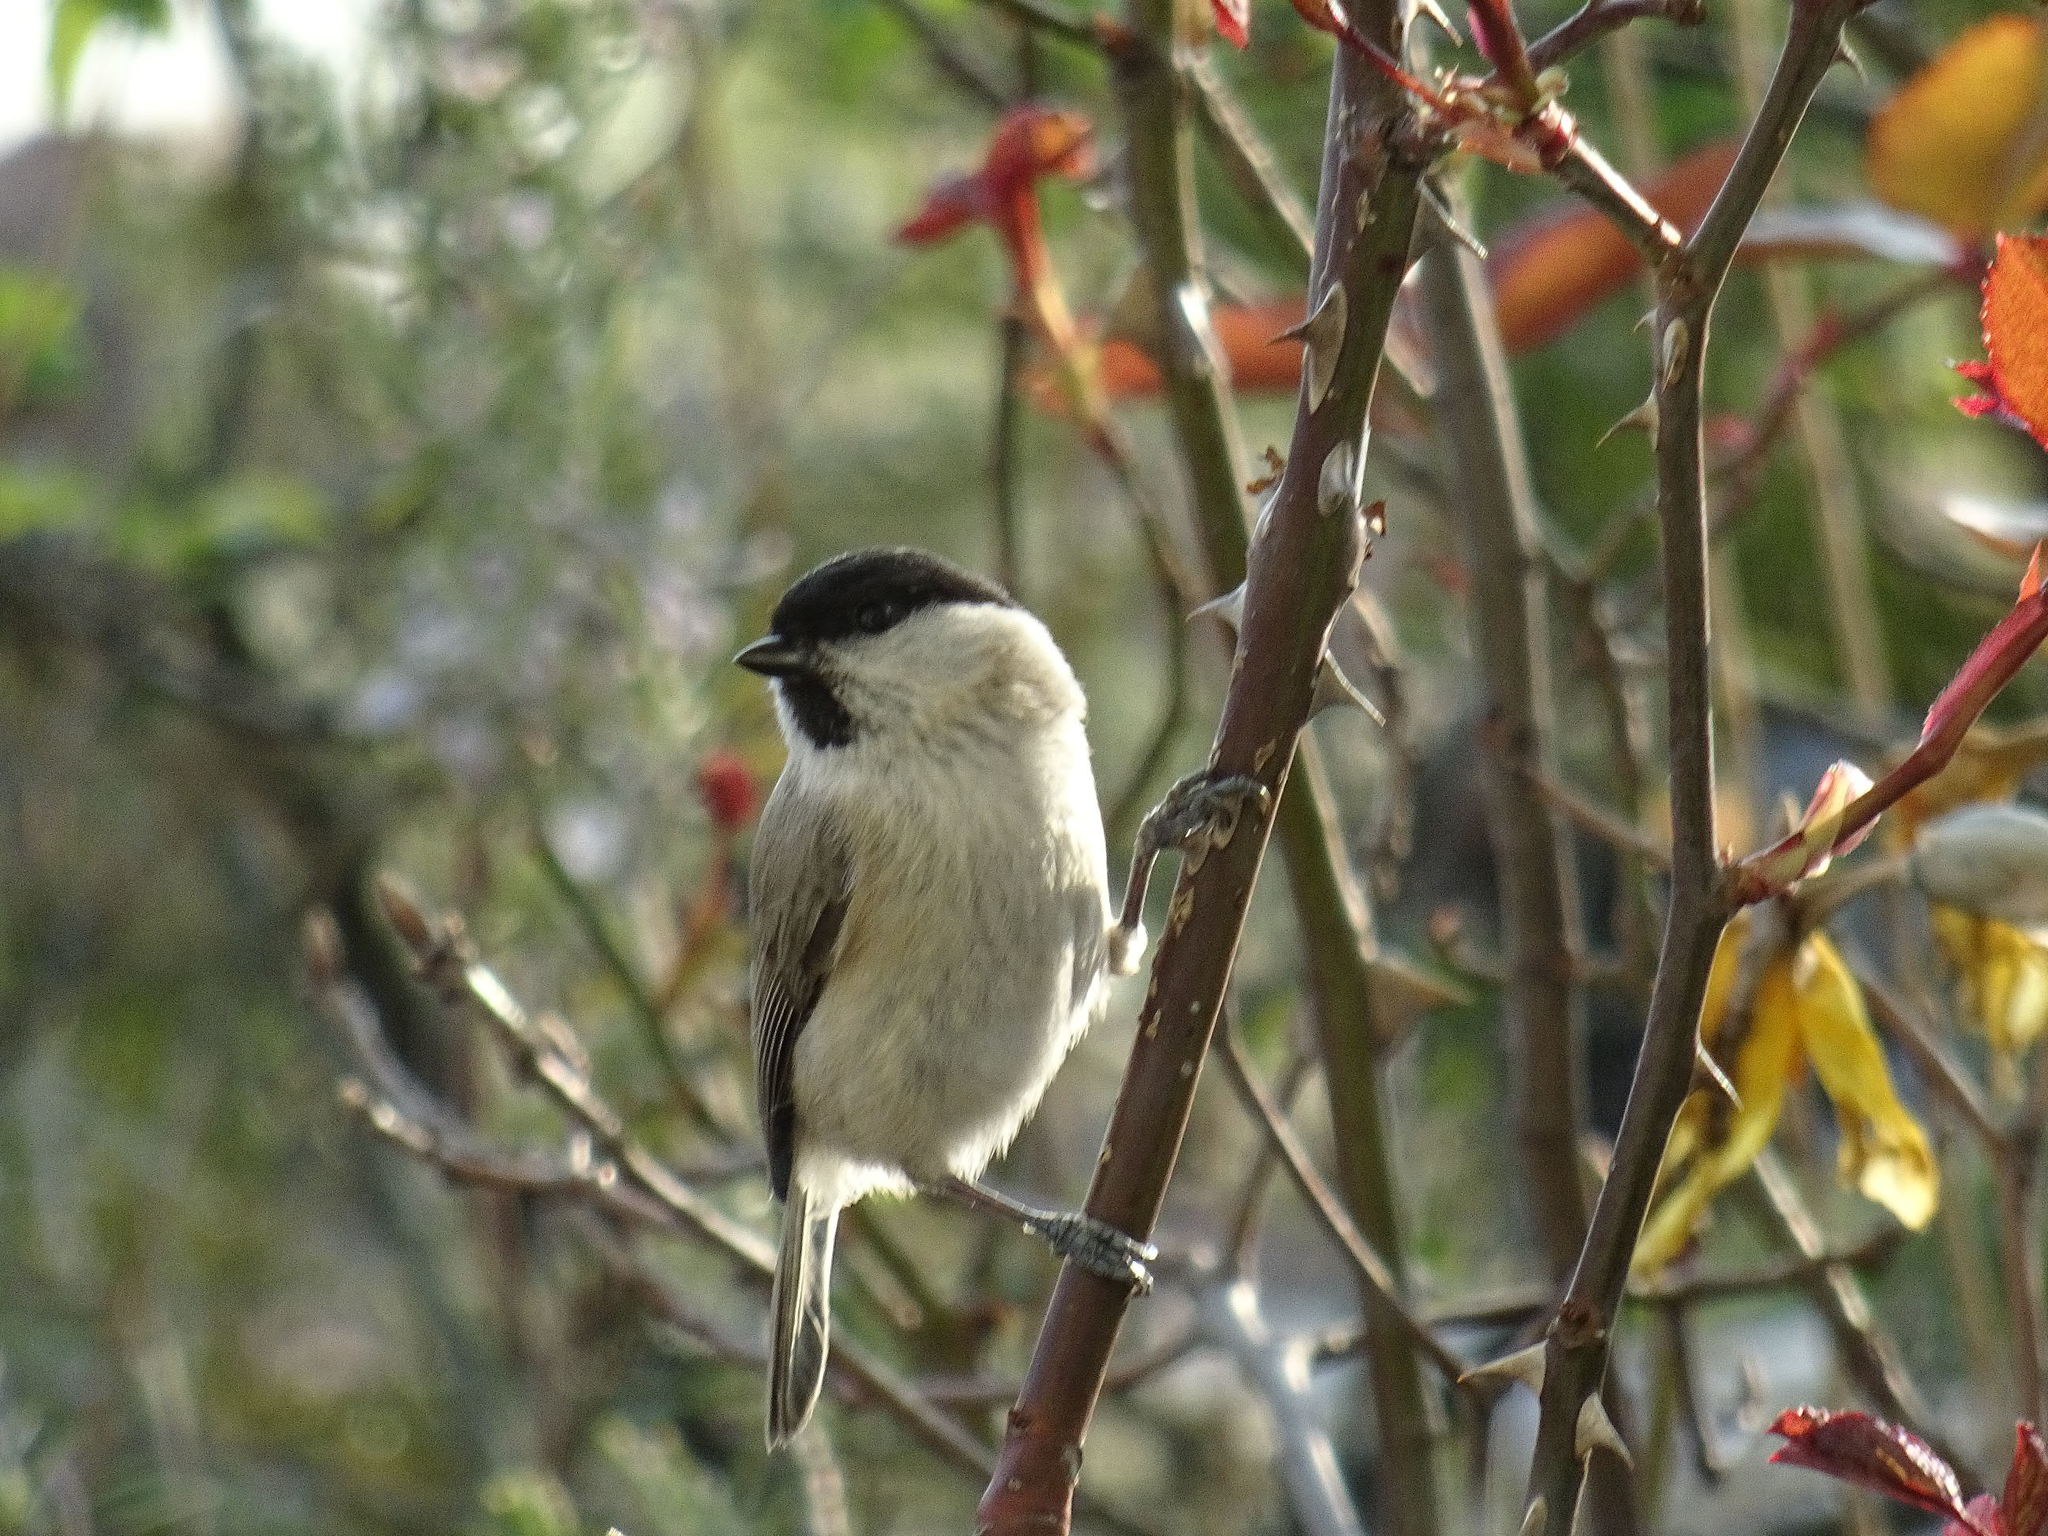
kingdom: Animalia
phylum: Chordata
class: Aves
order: Passeriformes
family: Paridae
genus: Poecile
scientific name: Poecile palustris
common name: Marsh tit
